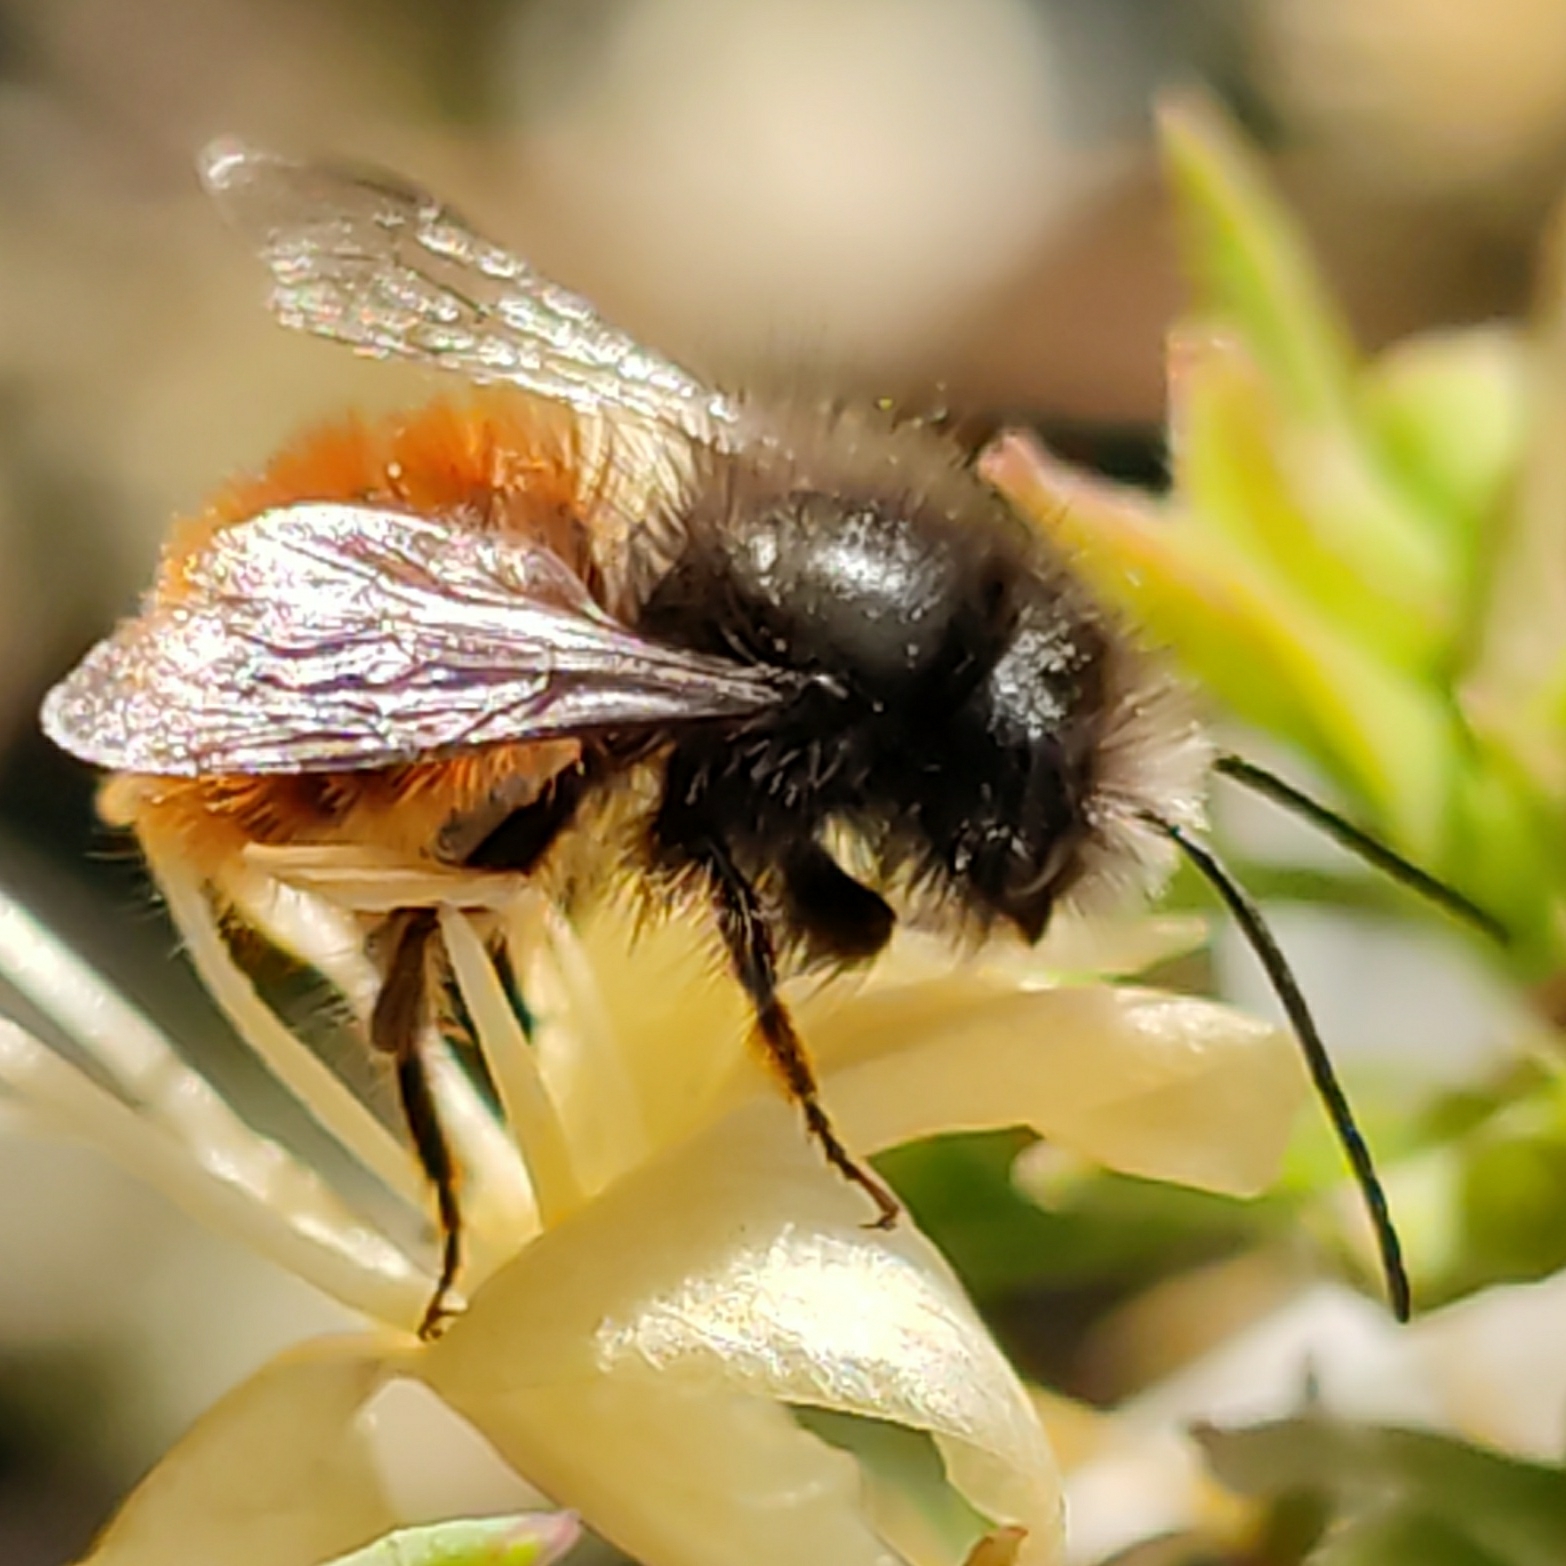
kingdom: Animalia
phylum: Arthropoda
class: Insecta
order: Hymenoptera
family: Megachilidae
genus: Osmia
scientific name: Osmia cornuta
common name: Mason bee
